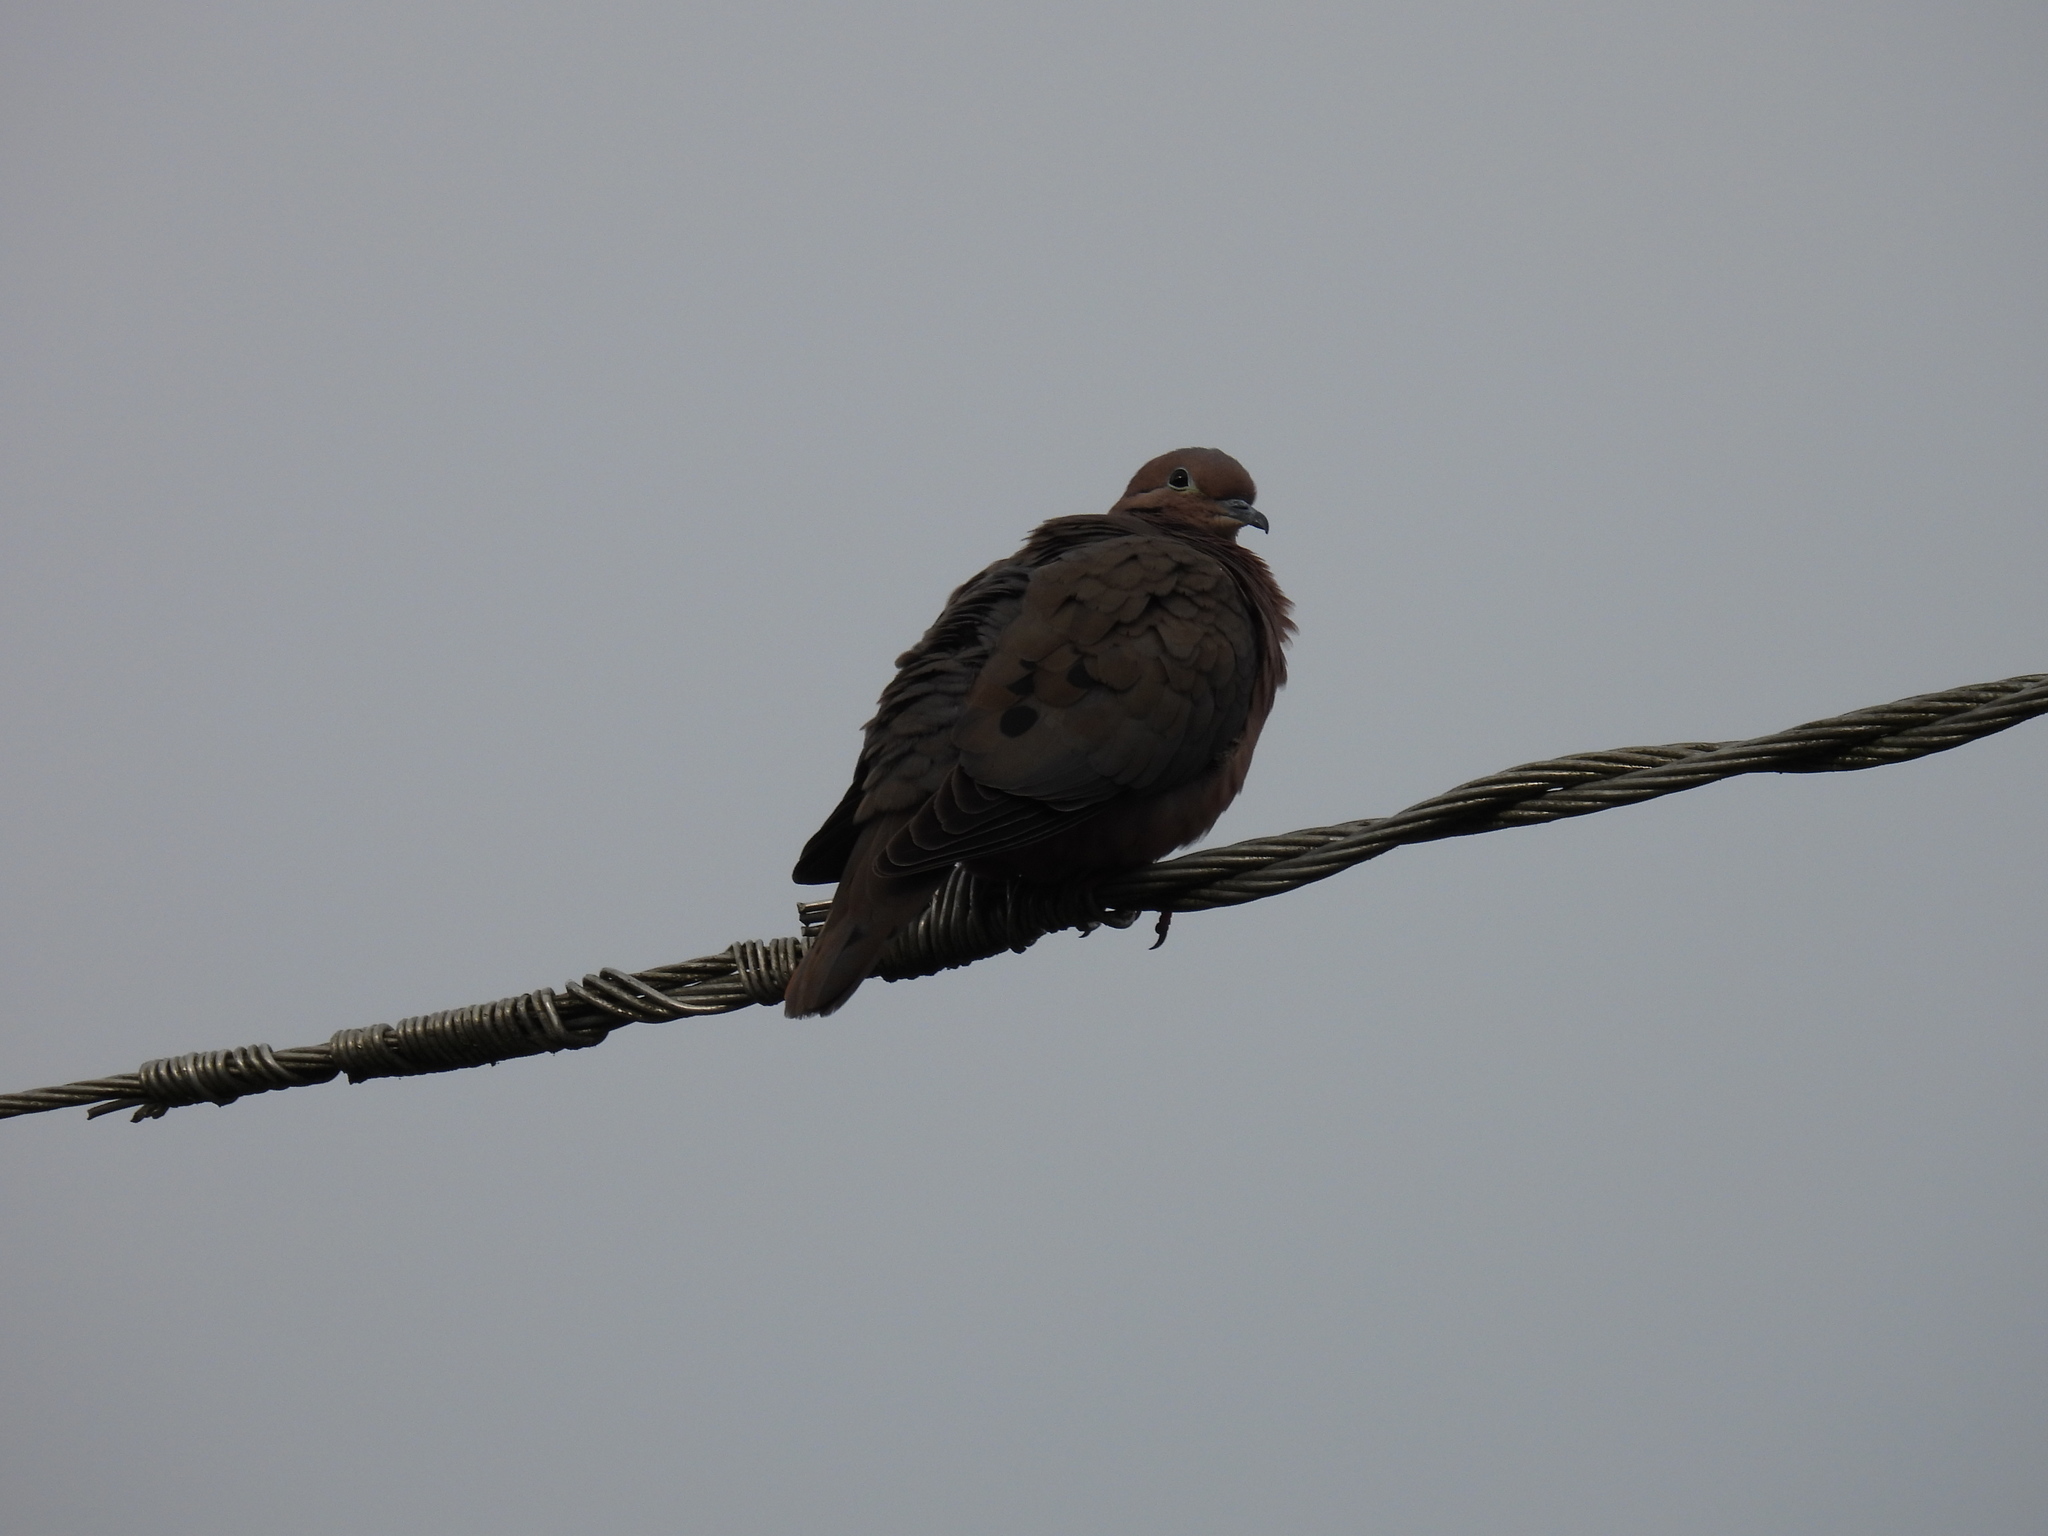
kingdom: Animalia
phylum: Chordata
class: Aves
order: Columbiformes
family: Columbidae
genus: Zenaida
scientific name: Zenaida auriculata
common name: Eared dove
